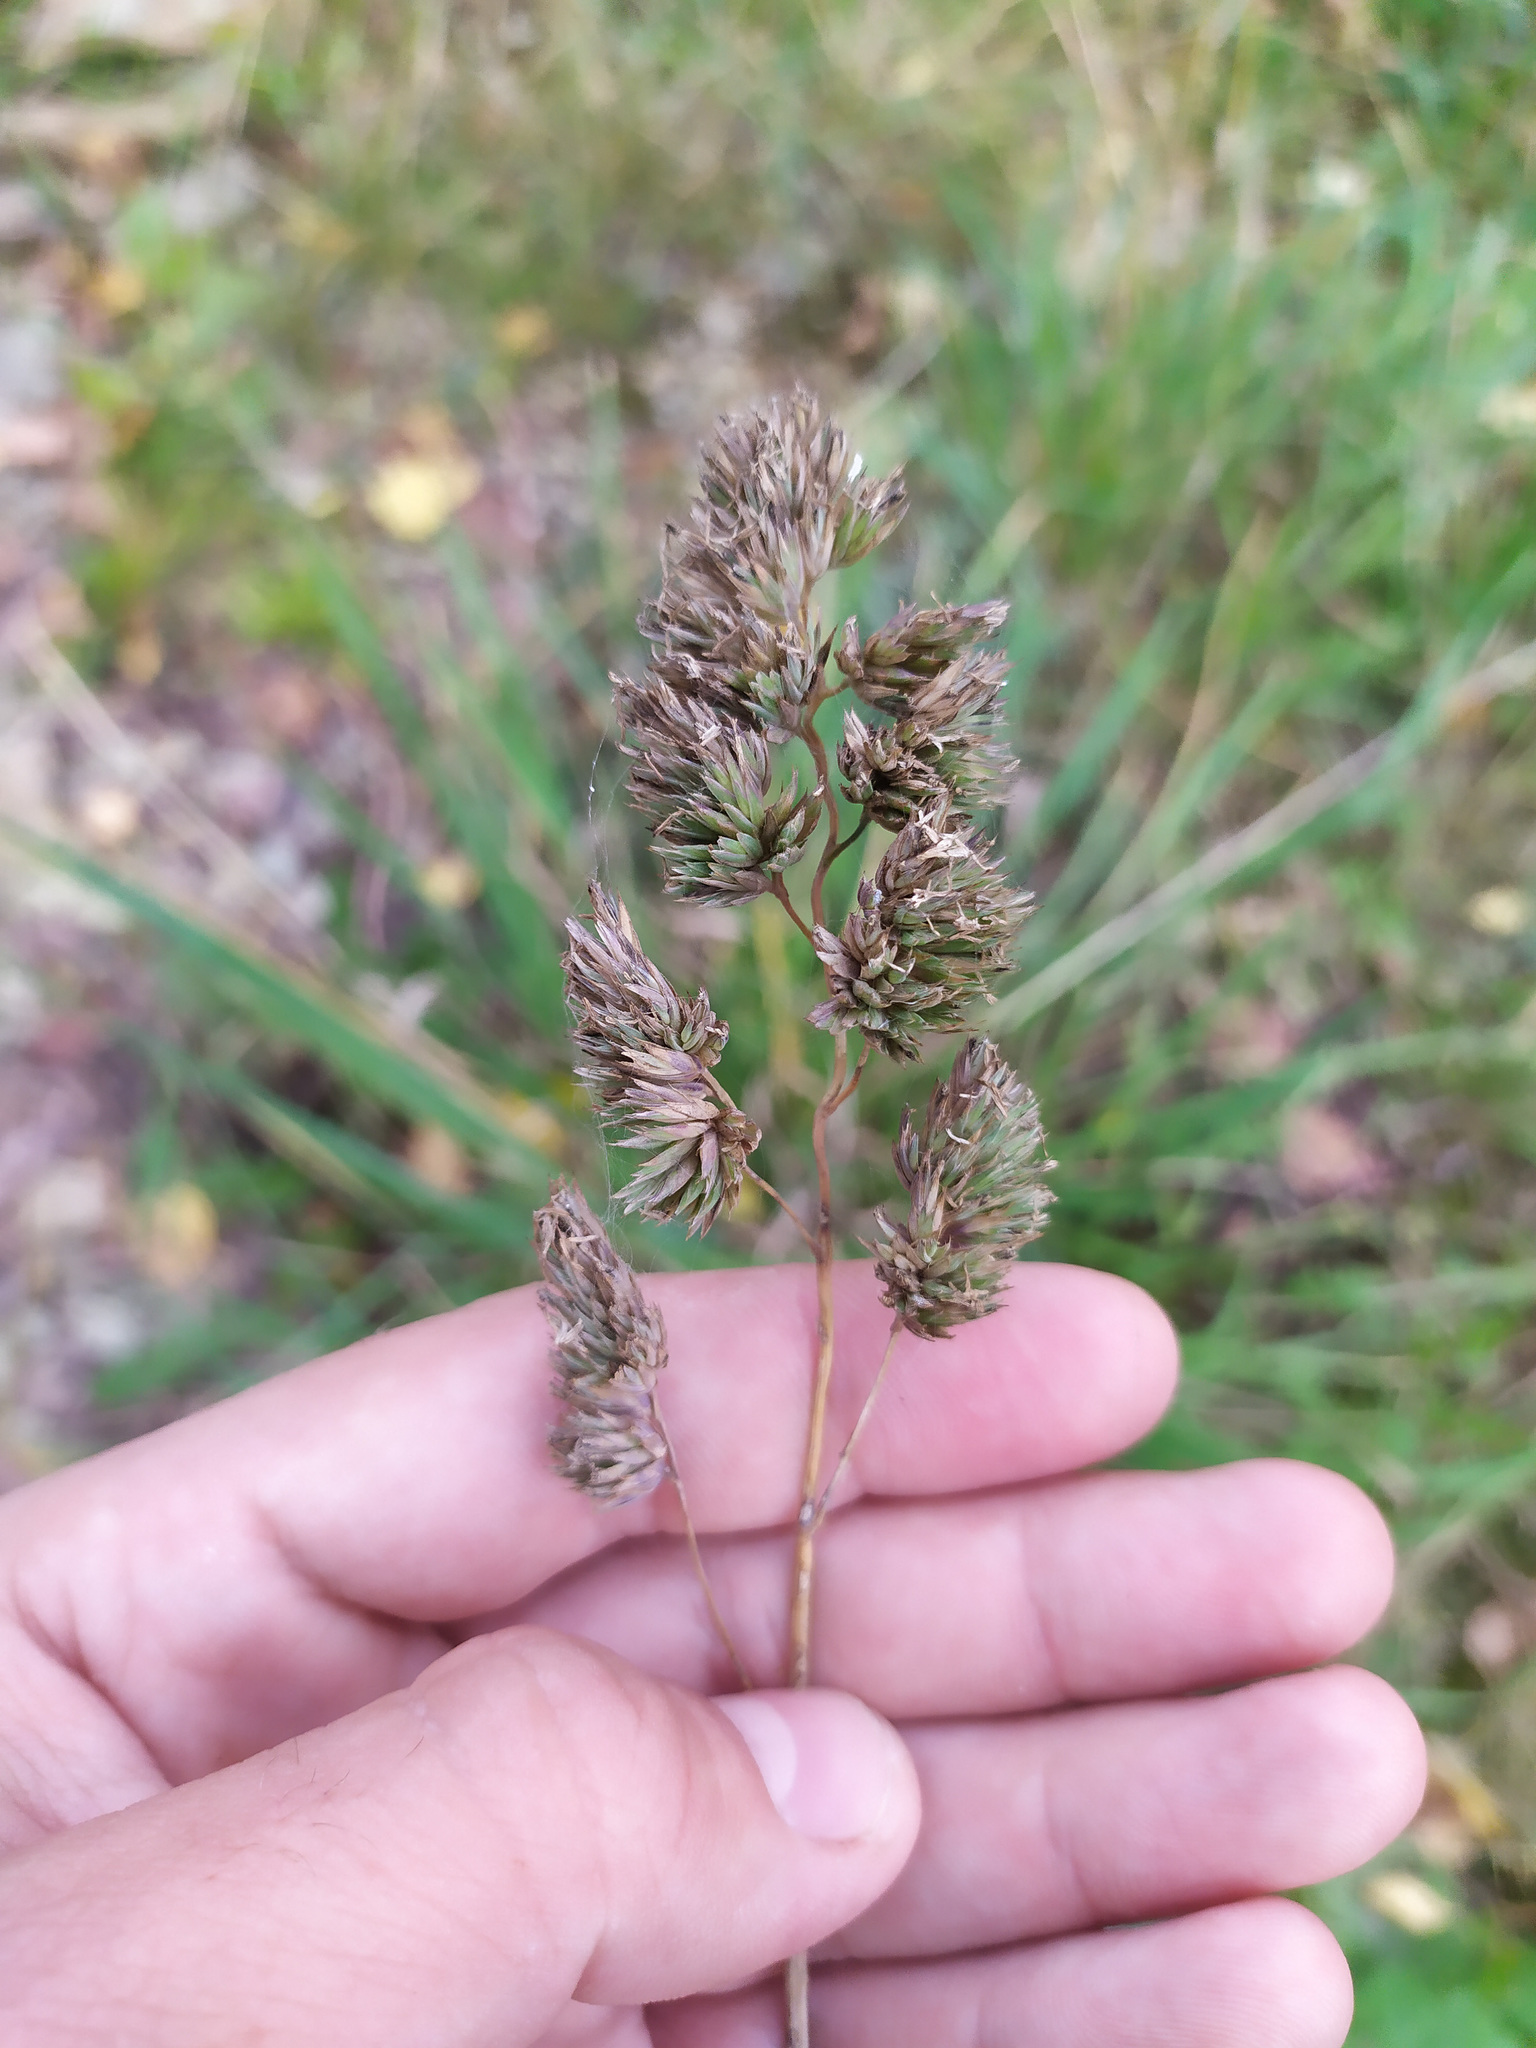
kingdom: Plantae
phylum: Tracheophyta
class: Liliopsida
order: Poales
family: Poaceae
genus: Dactylis
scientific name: Dactylis glomerata
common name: Orchardgrass
